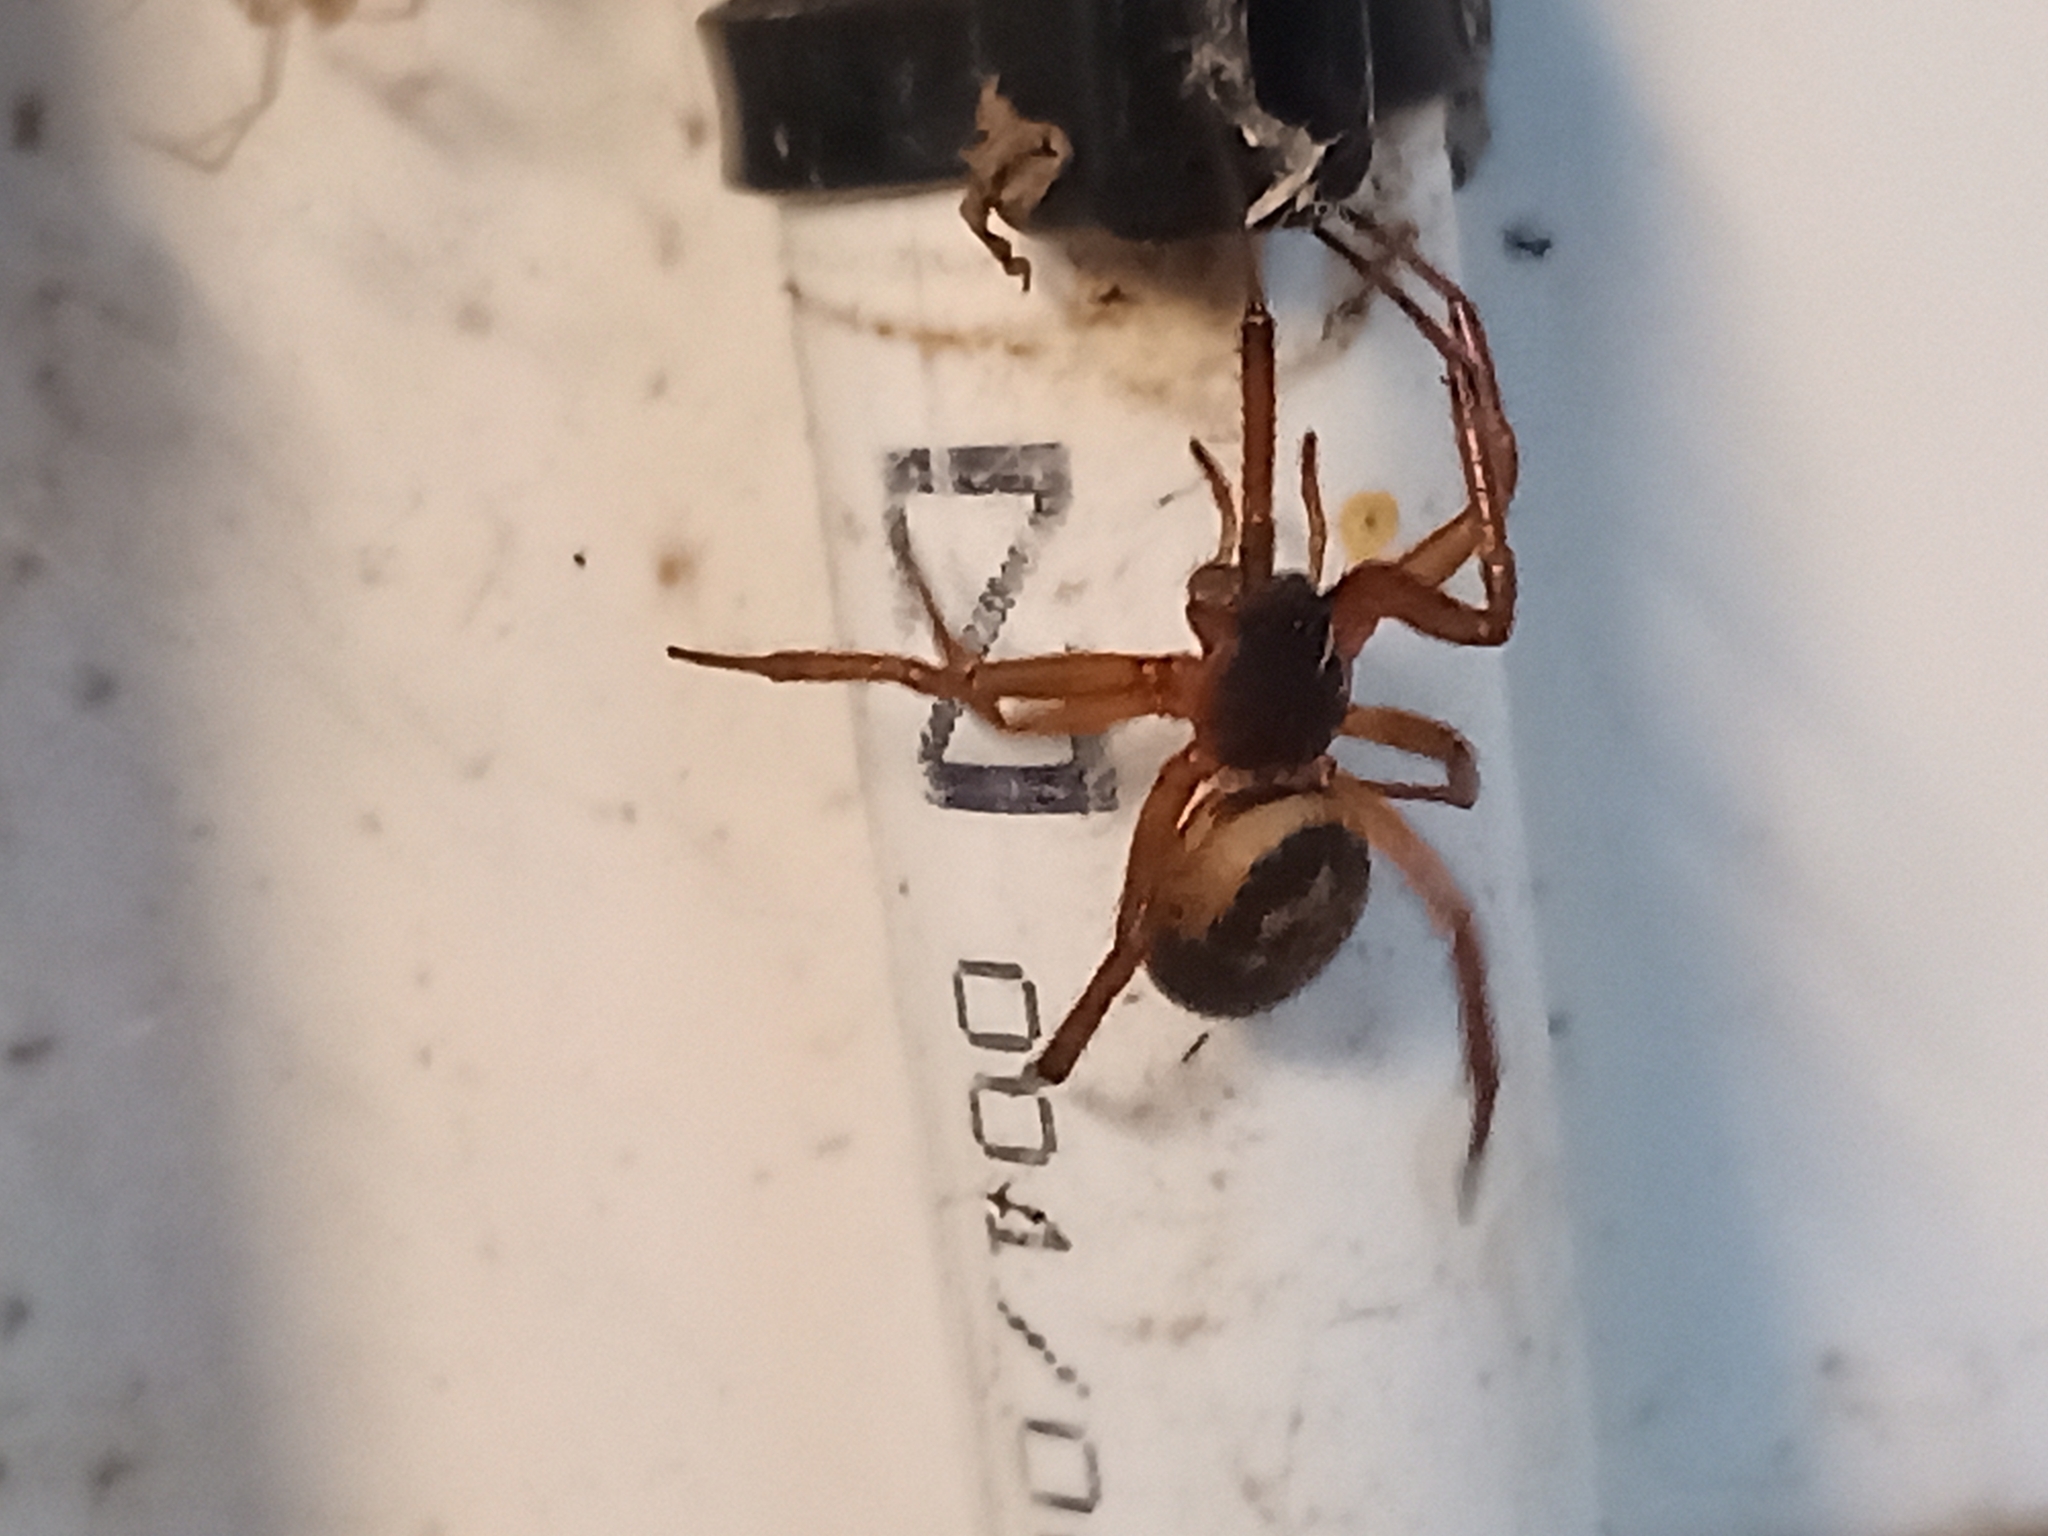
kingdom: Animalia
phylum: Arthropoda
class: Arachnida
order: Araneae
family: Theridiidae
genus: Steatoda
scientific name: Steatoda nobilis
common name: Cobweb weaver
